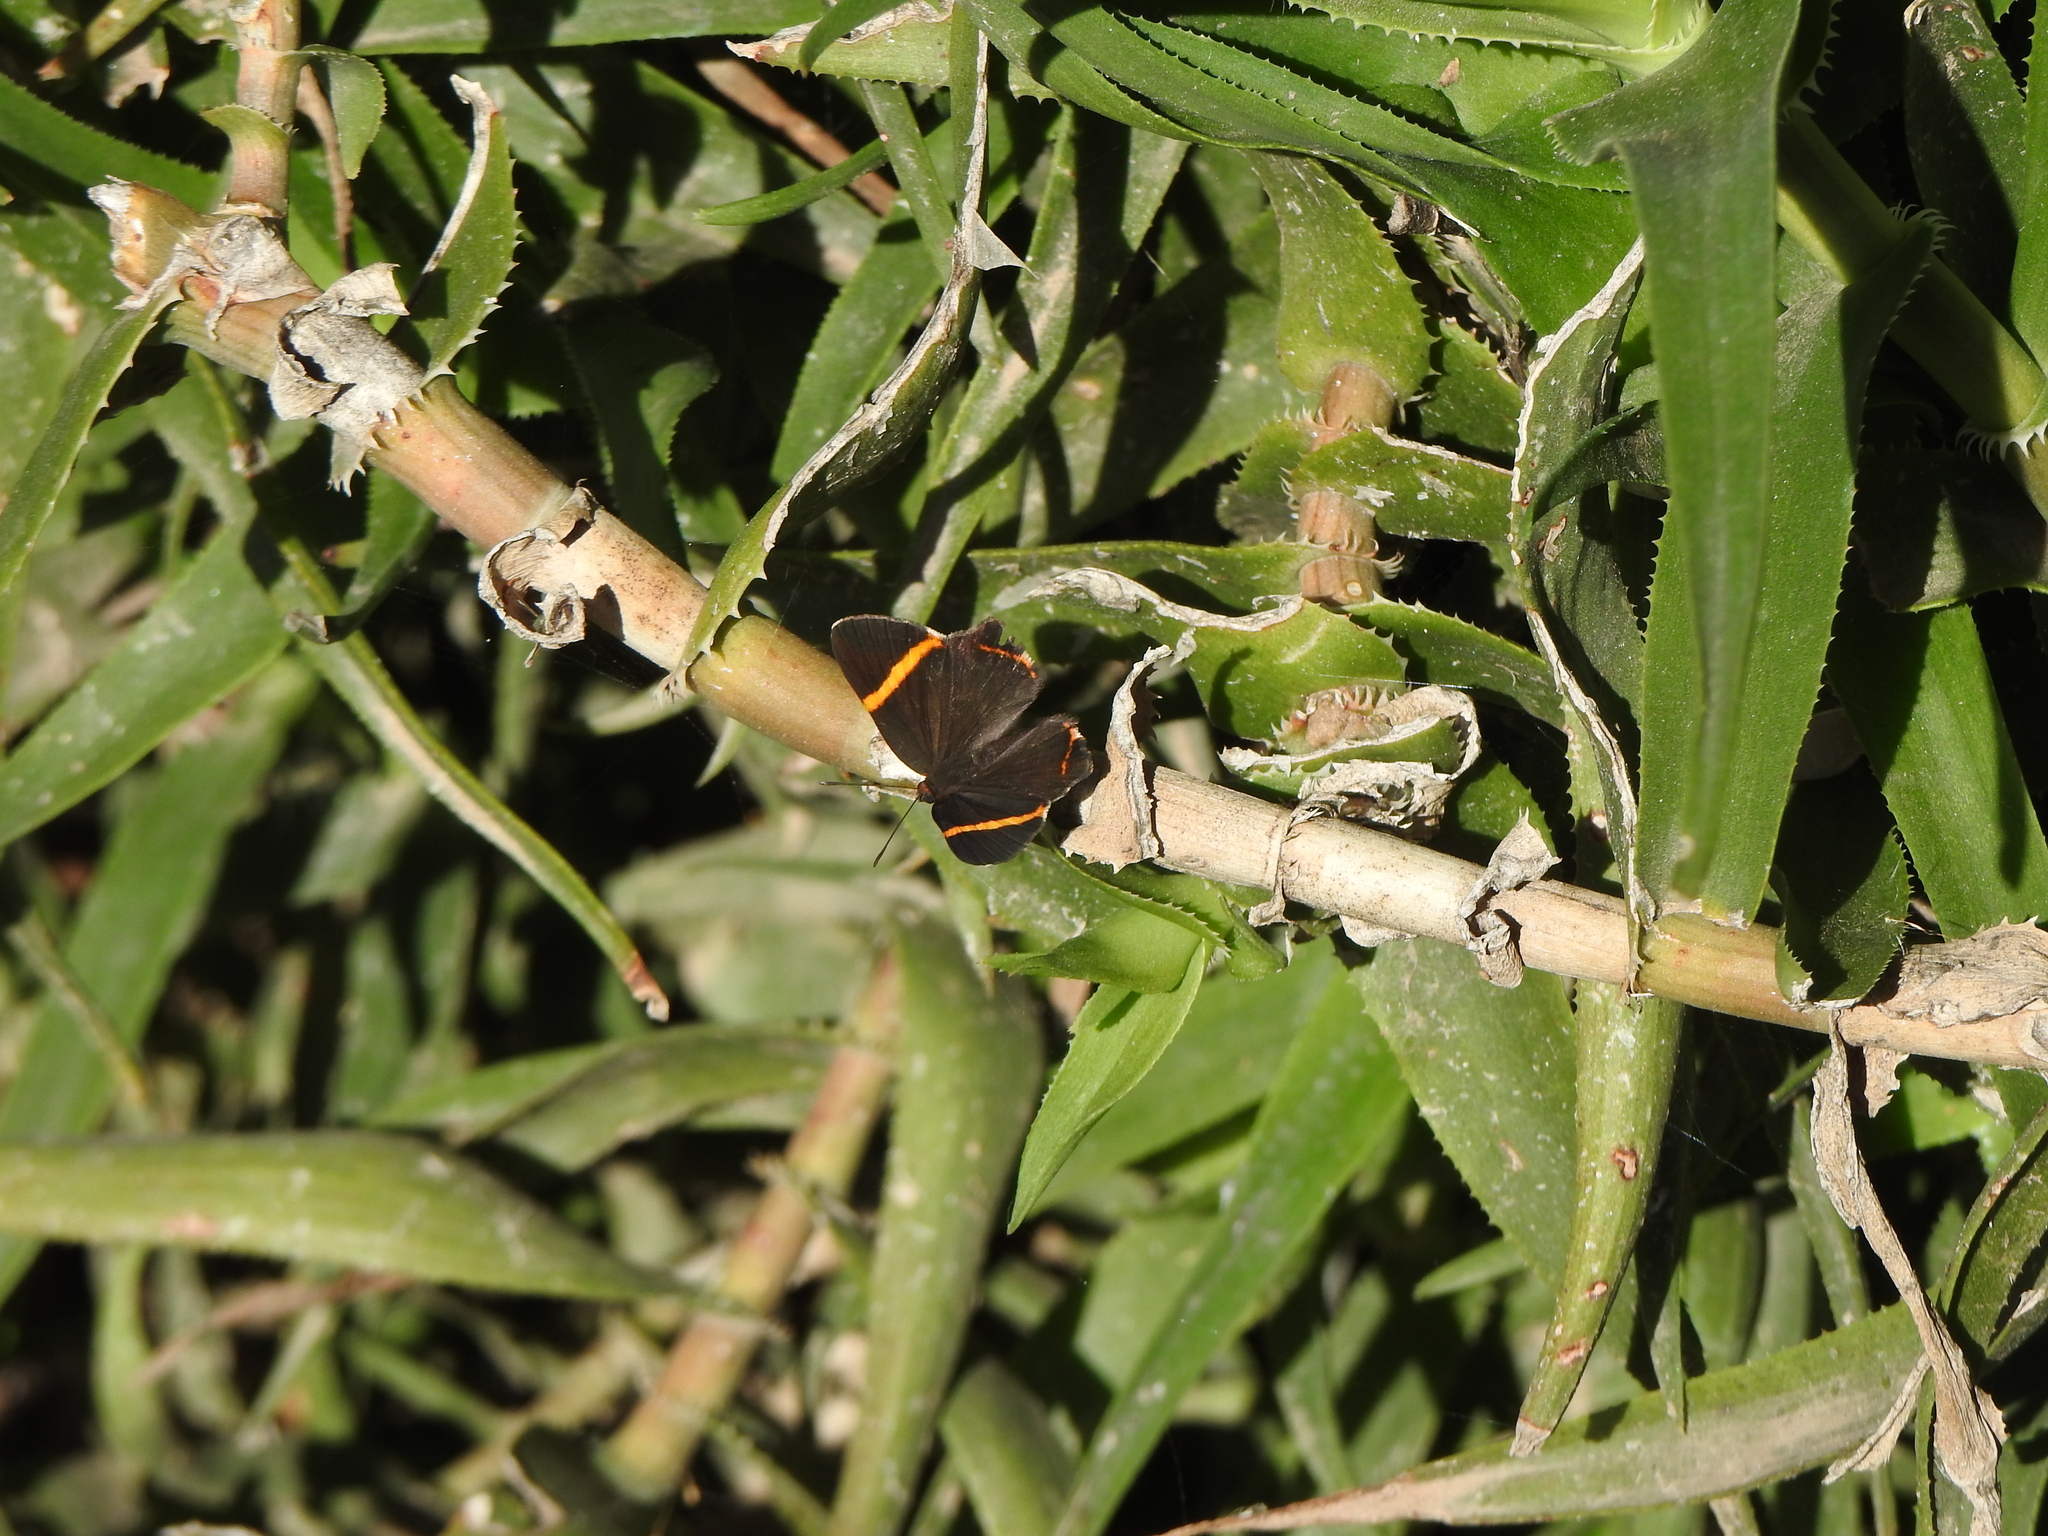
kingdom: Animalia
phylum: Arthropoda
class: Insecta
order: Lepidoptera
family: Riodinidae
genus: Riodina
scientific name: Riodina lysippoides
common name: Little dancer metalmark
